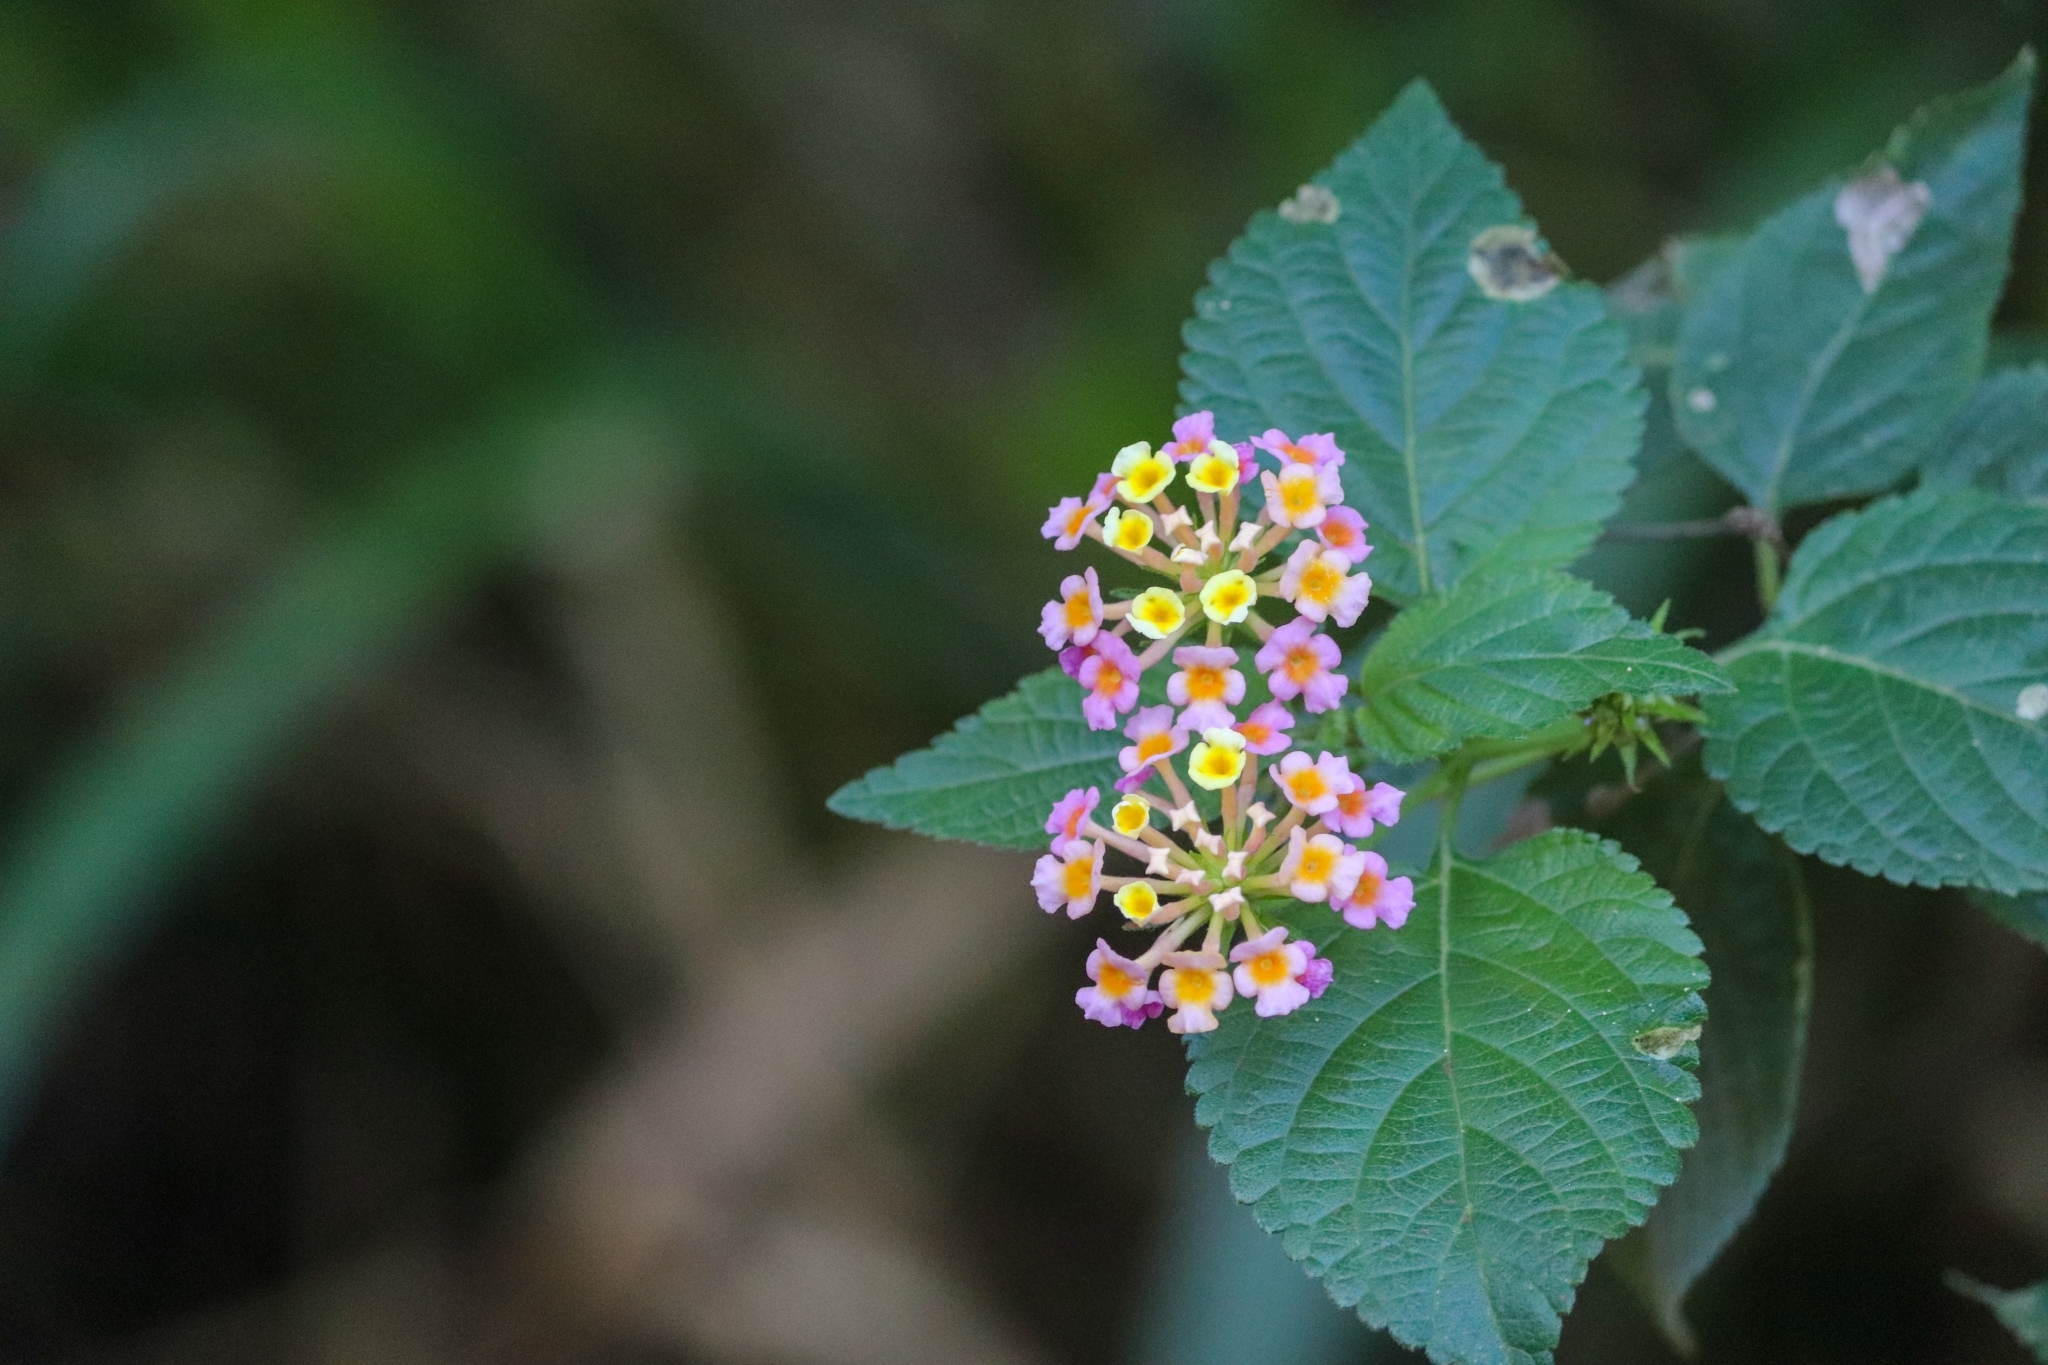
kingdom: Plantae
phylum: Tracheophyta
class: Magnoliopsida
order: Lamiales
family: Verbenaceae
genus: Lantana
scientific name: Lantana camara
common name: Lantana
